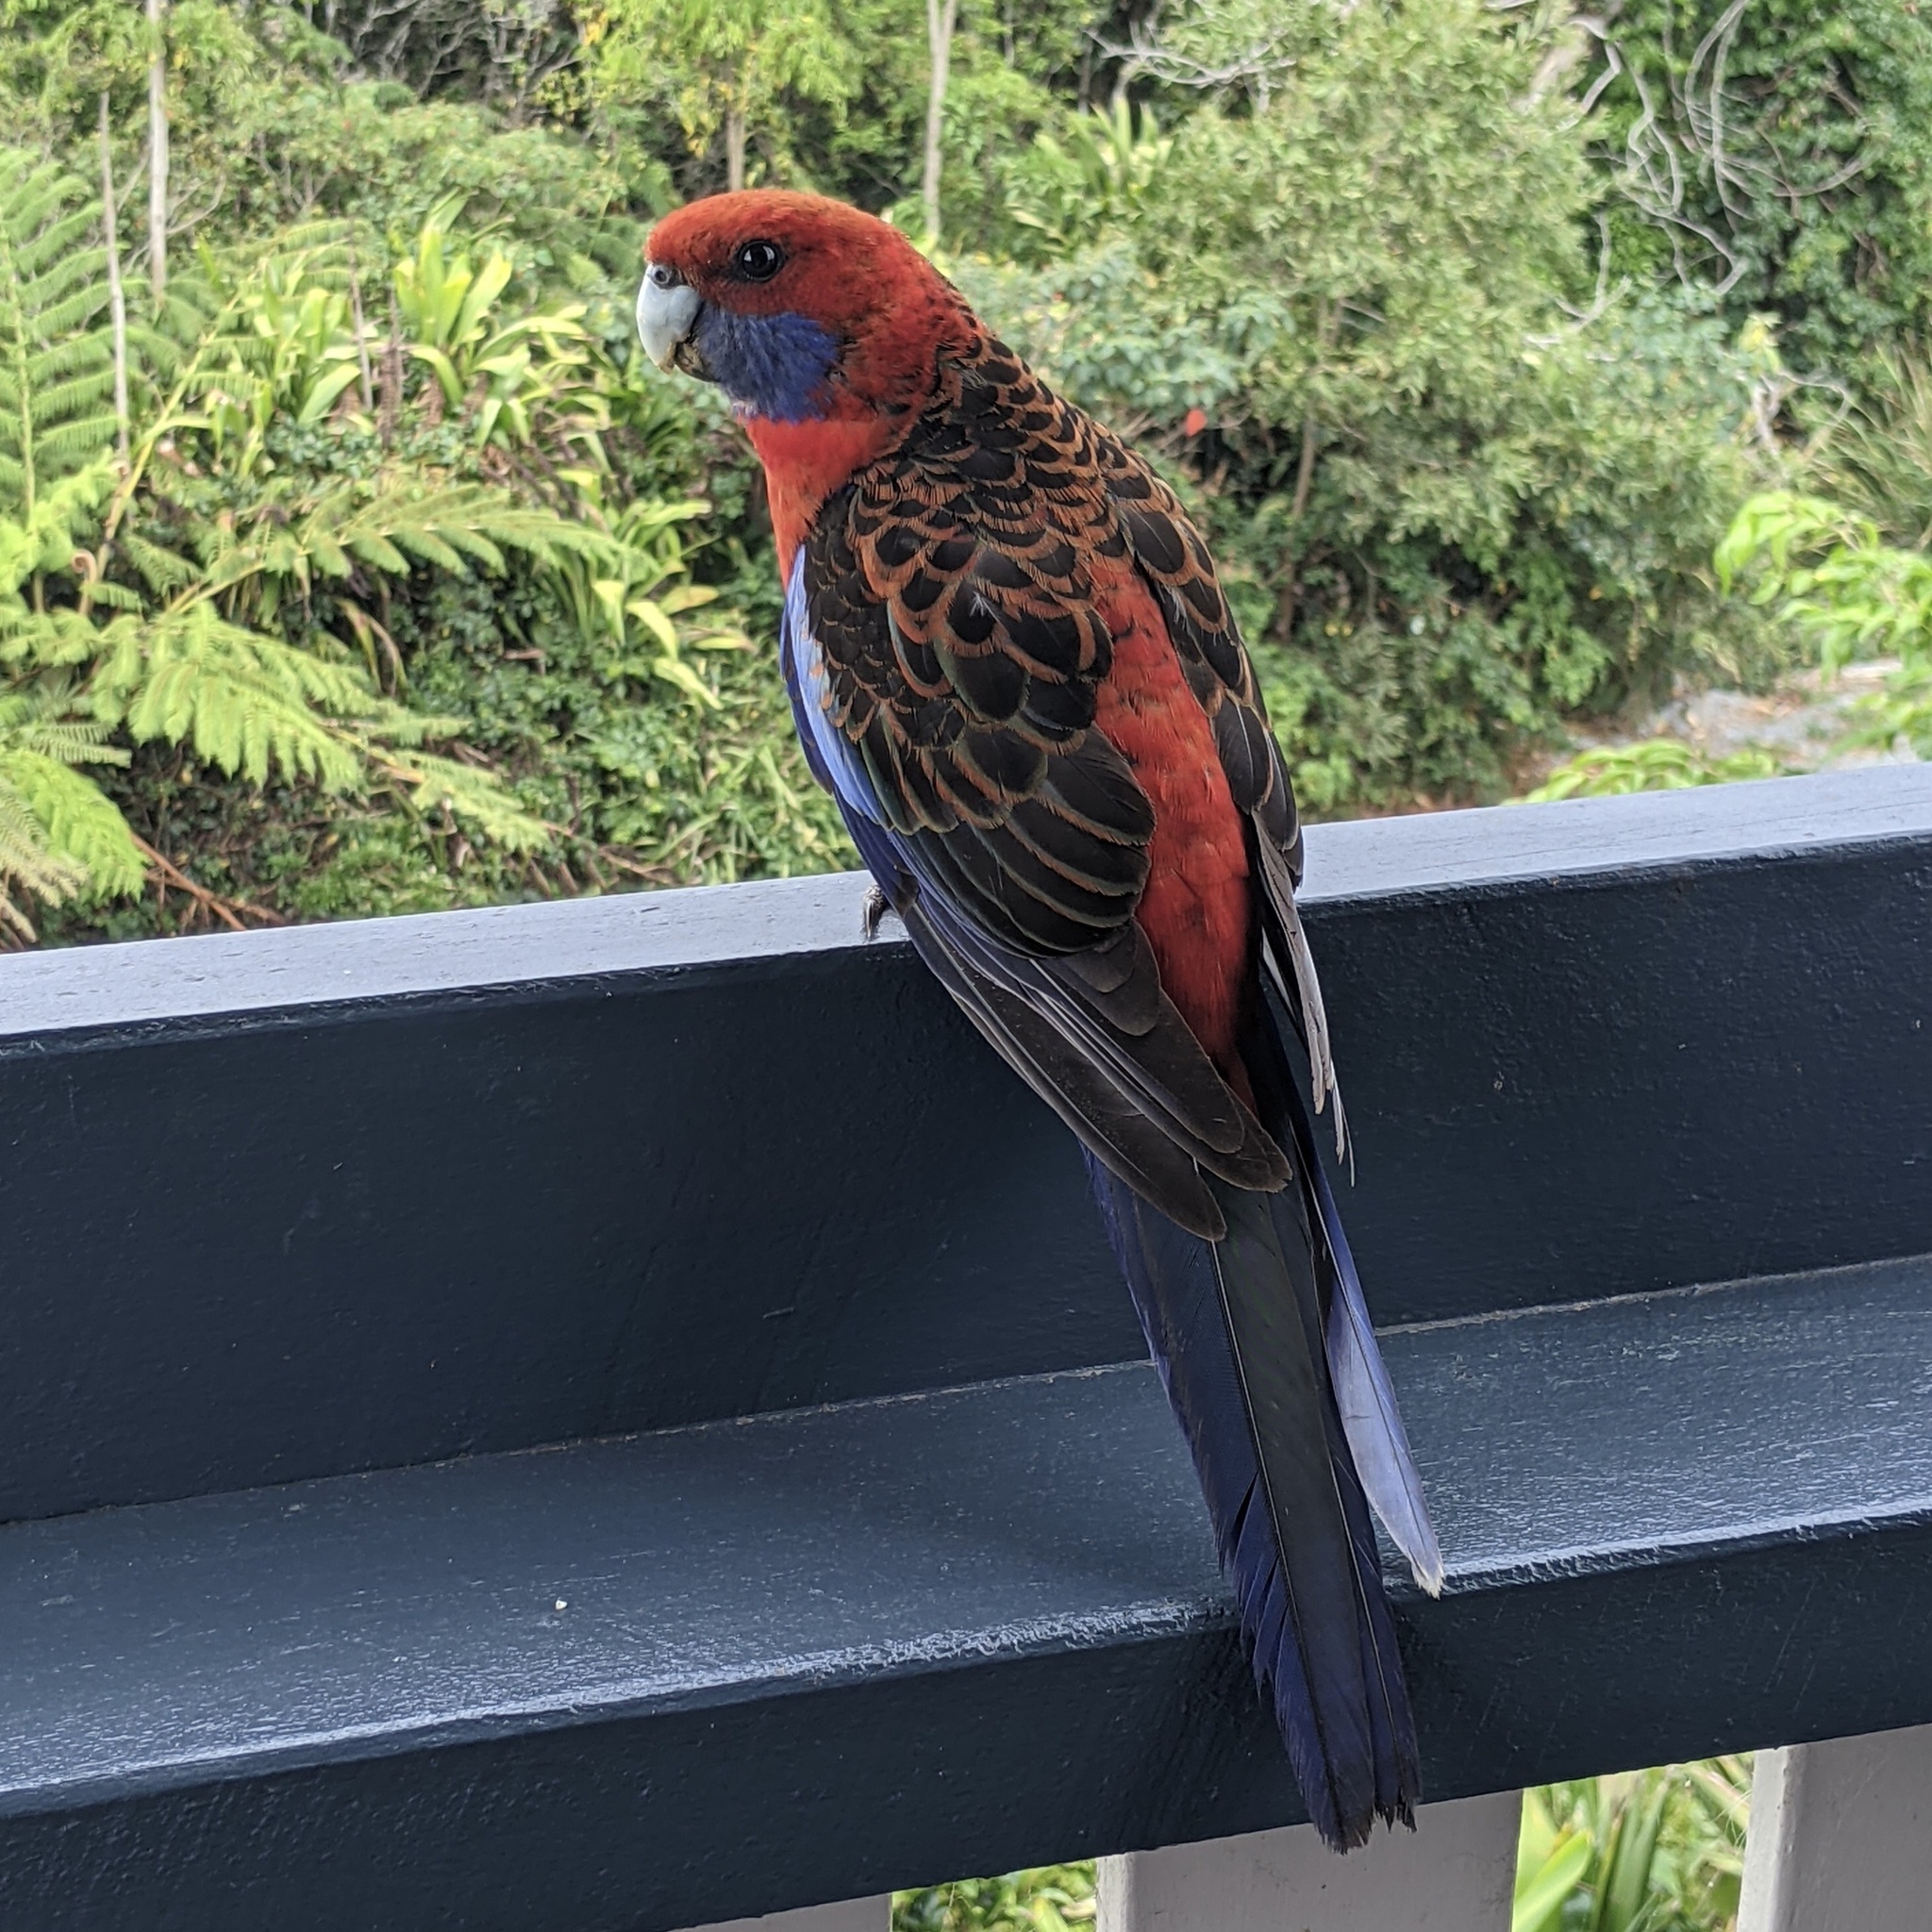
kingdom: Animalia
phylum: Chordata
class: Aves
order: Psittaciformes
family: Psittacidae
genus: Platycercus
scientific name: Platycercus elegans
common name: Crimson rosella
